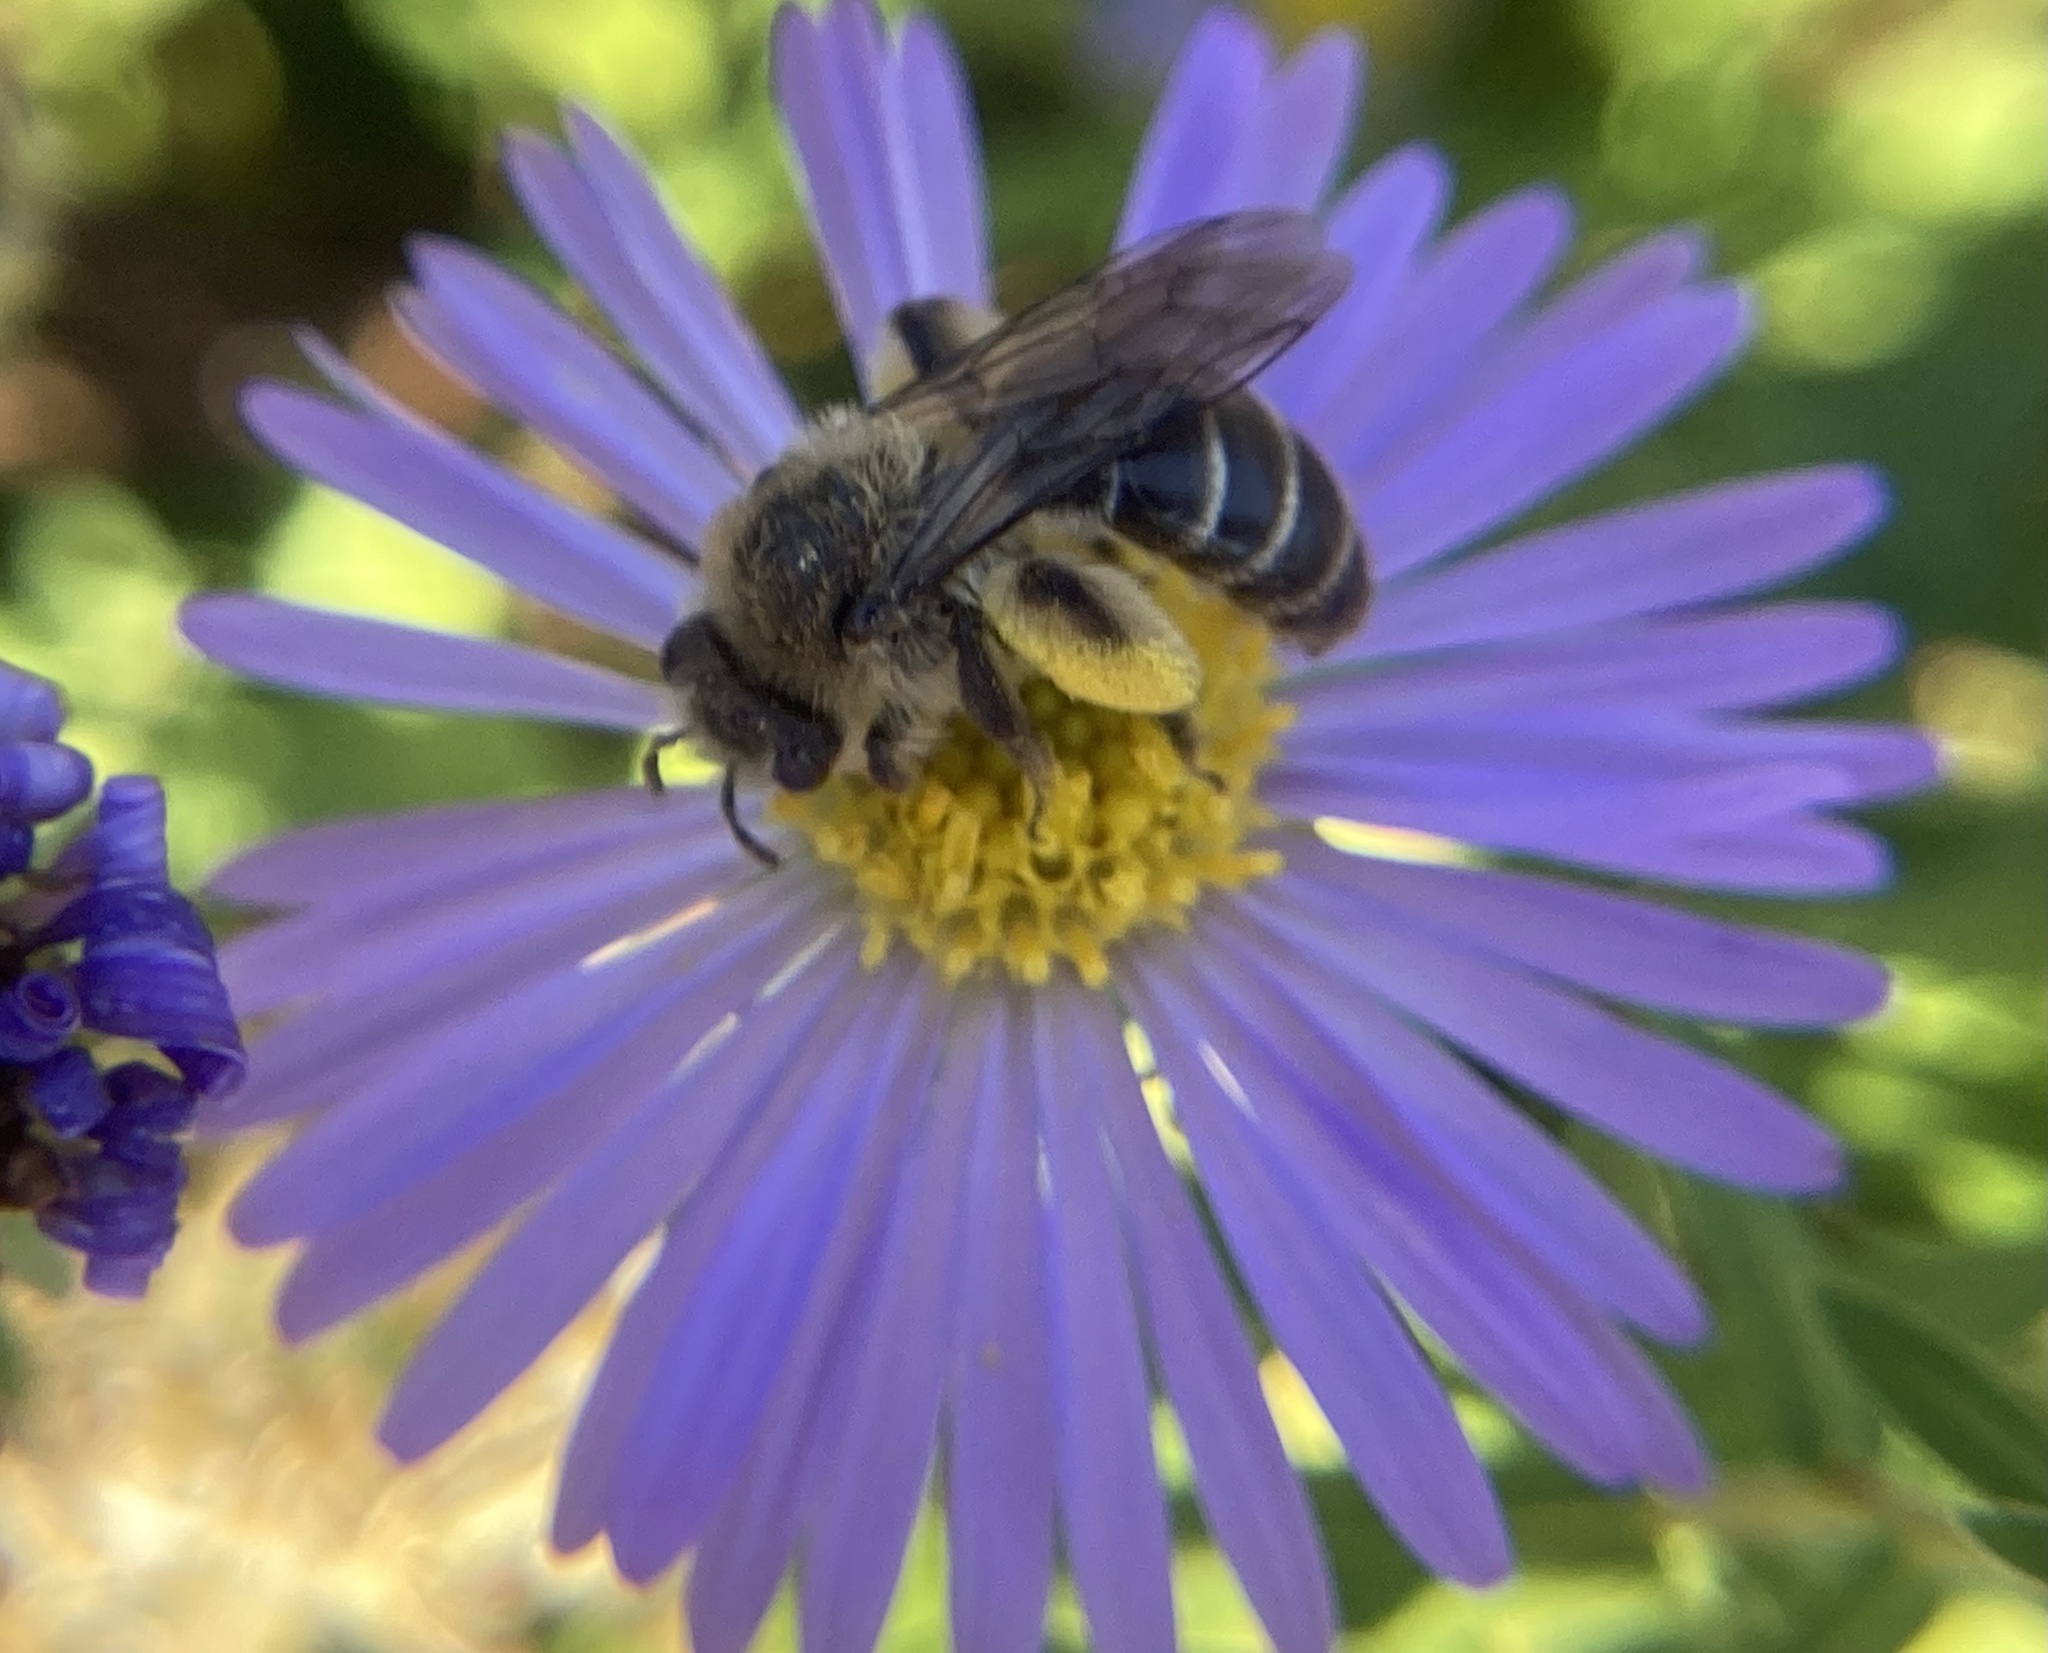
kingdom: Animalia
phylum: Arthropoda
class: Insecta
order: Hymenoptera
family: Andrenidae
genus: Andrena
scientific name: Andrena asteris
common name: Aster mining bee
